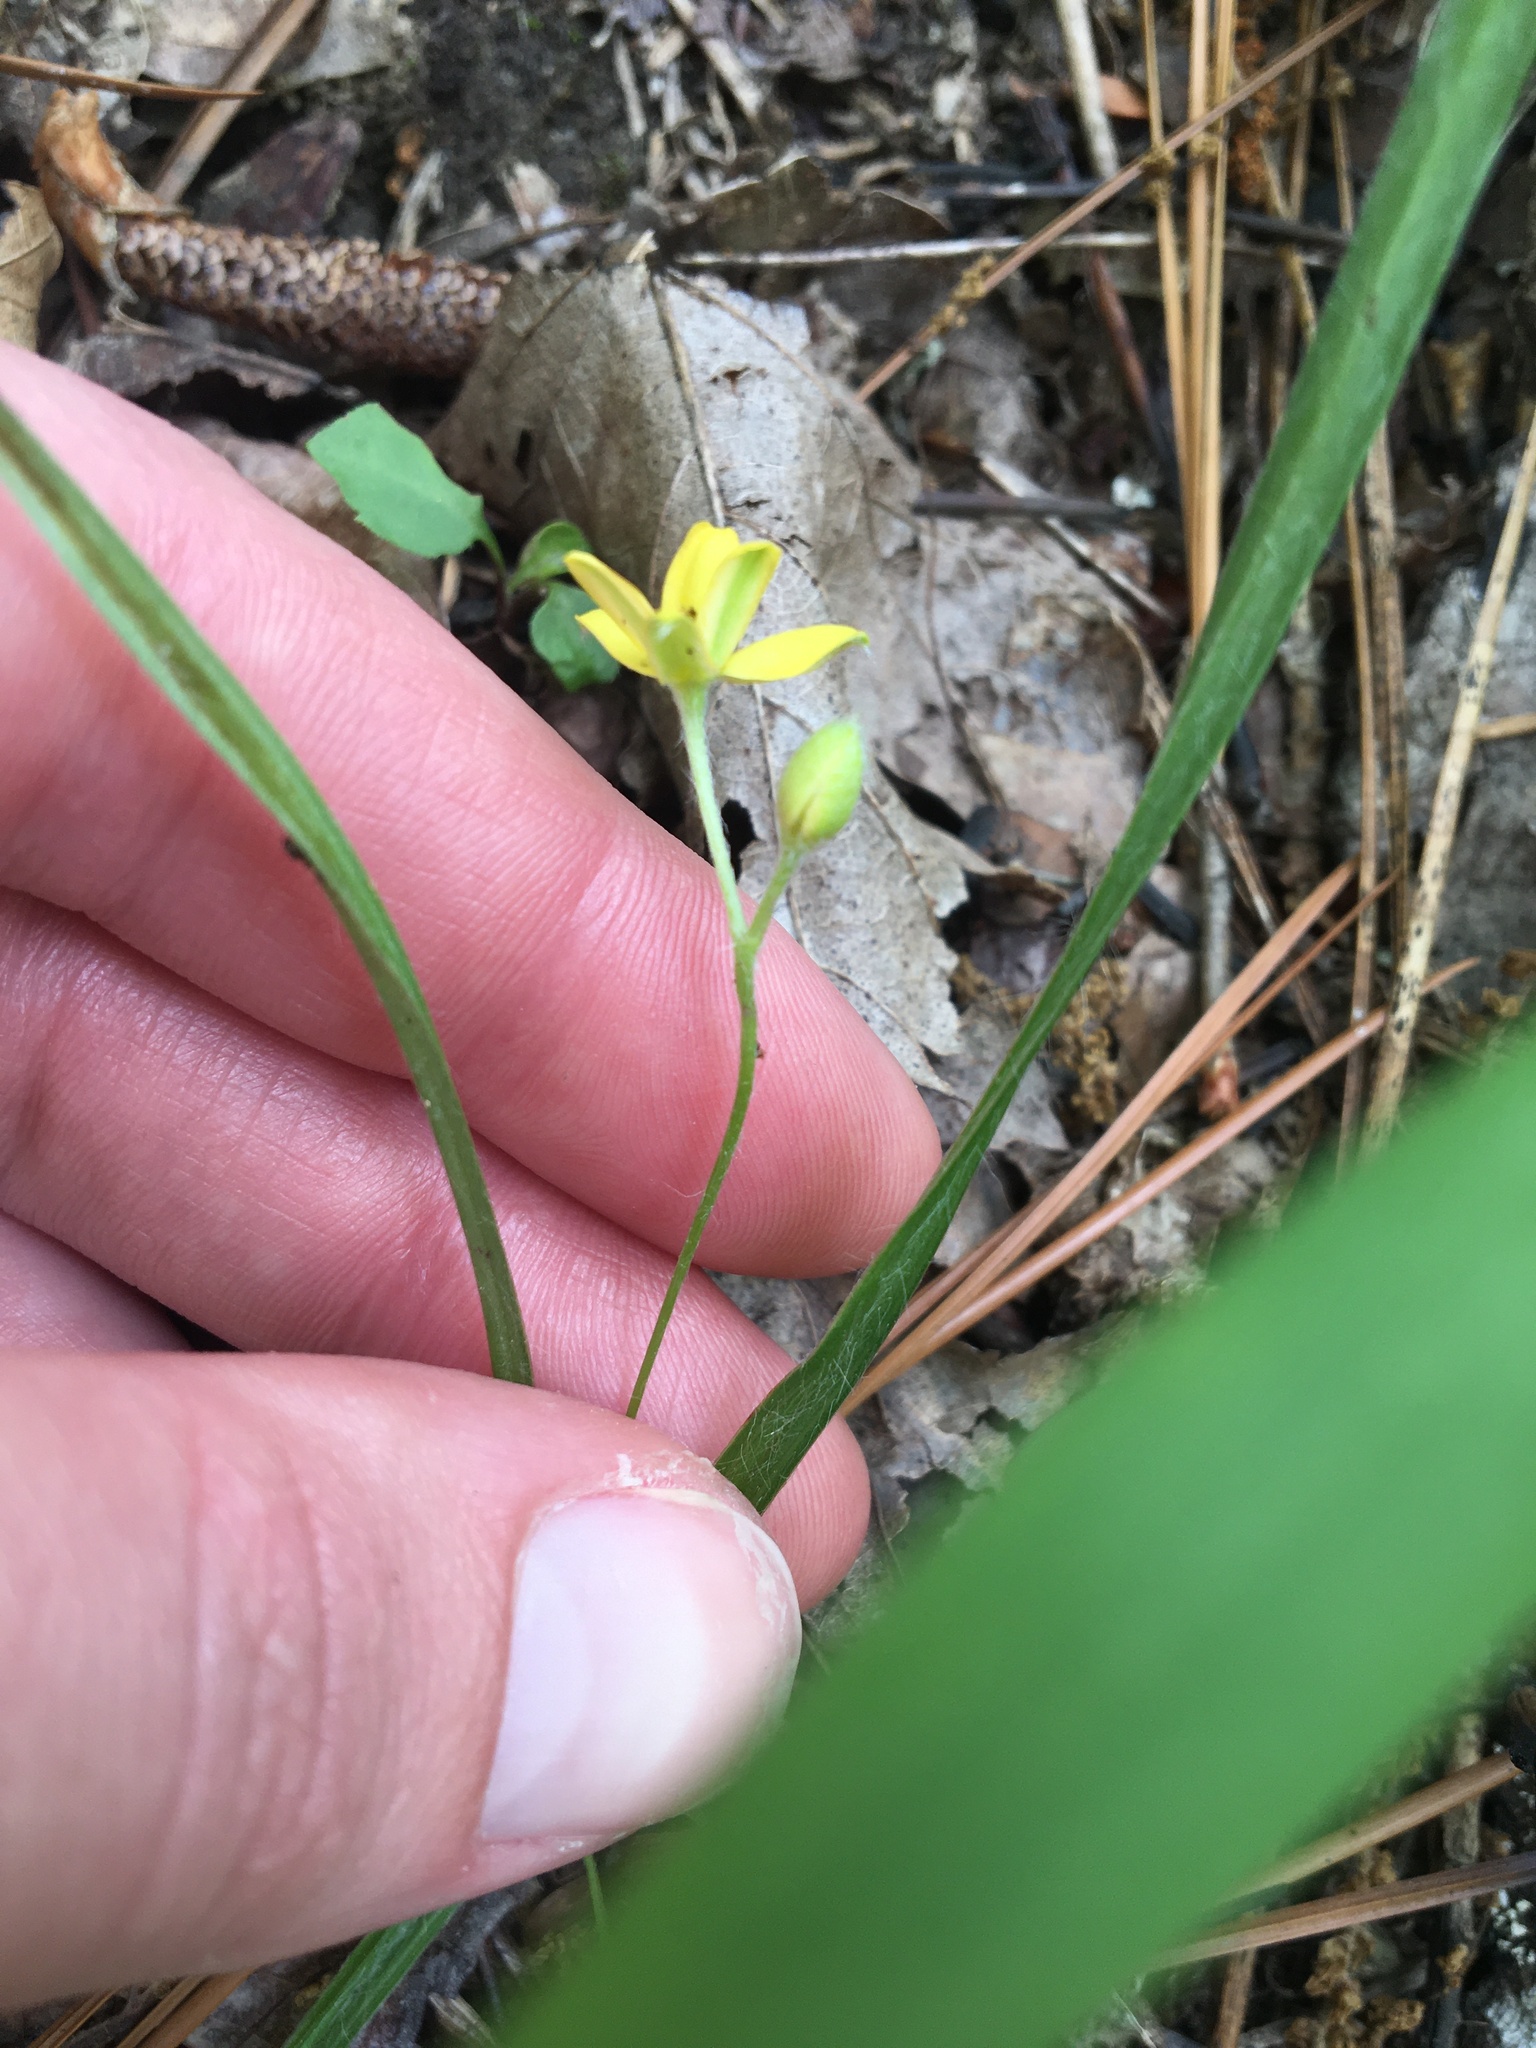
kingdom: Plantae
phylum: Tracheophyta
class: Liliopsida
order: Asparagales
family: Hypoxidaceae
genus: Hypoxis
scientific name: Hypoxis hirsuta
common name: Common goldstar
